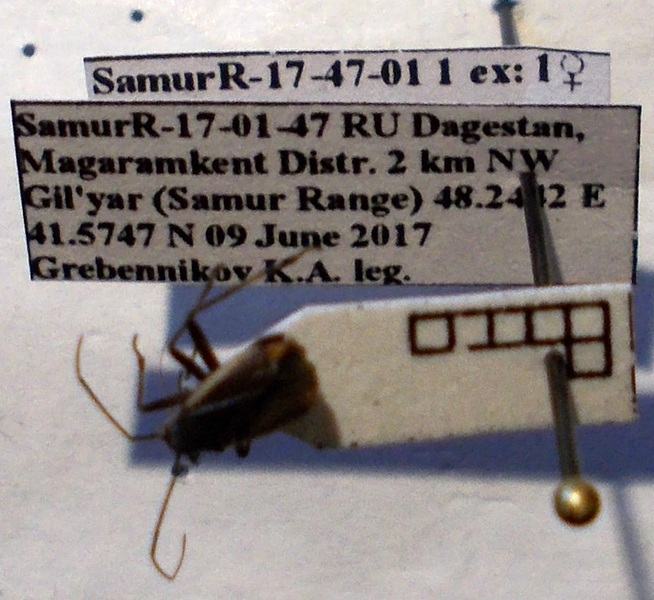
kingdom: Animalia
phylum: Arthropoda
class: Insecta
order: Hemiptera
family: Miridae
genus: Capsodes
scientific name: Capsodes gothicus
